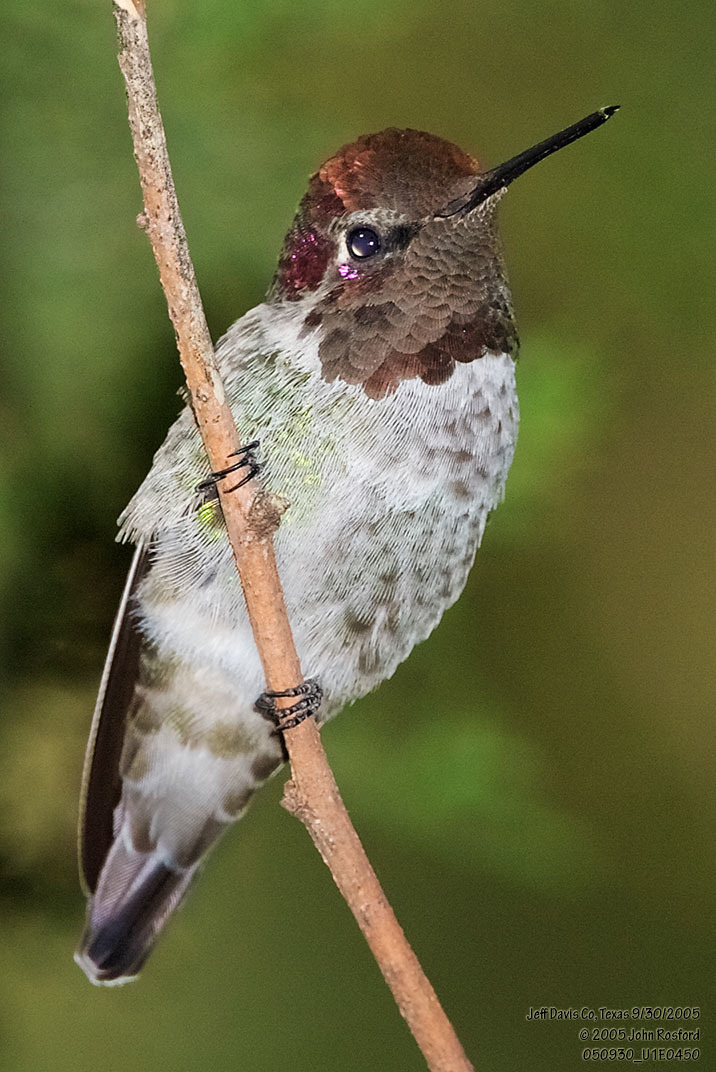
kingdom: Animalia
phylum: Chordata
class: Aves
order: Apodiformes
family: Trochilidae
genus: Calypte
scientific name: Calypte anna
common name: Anna's hummingbird
